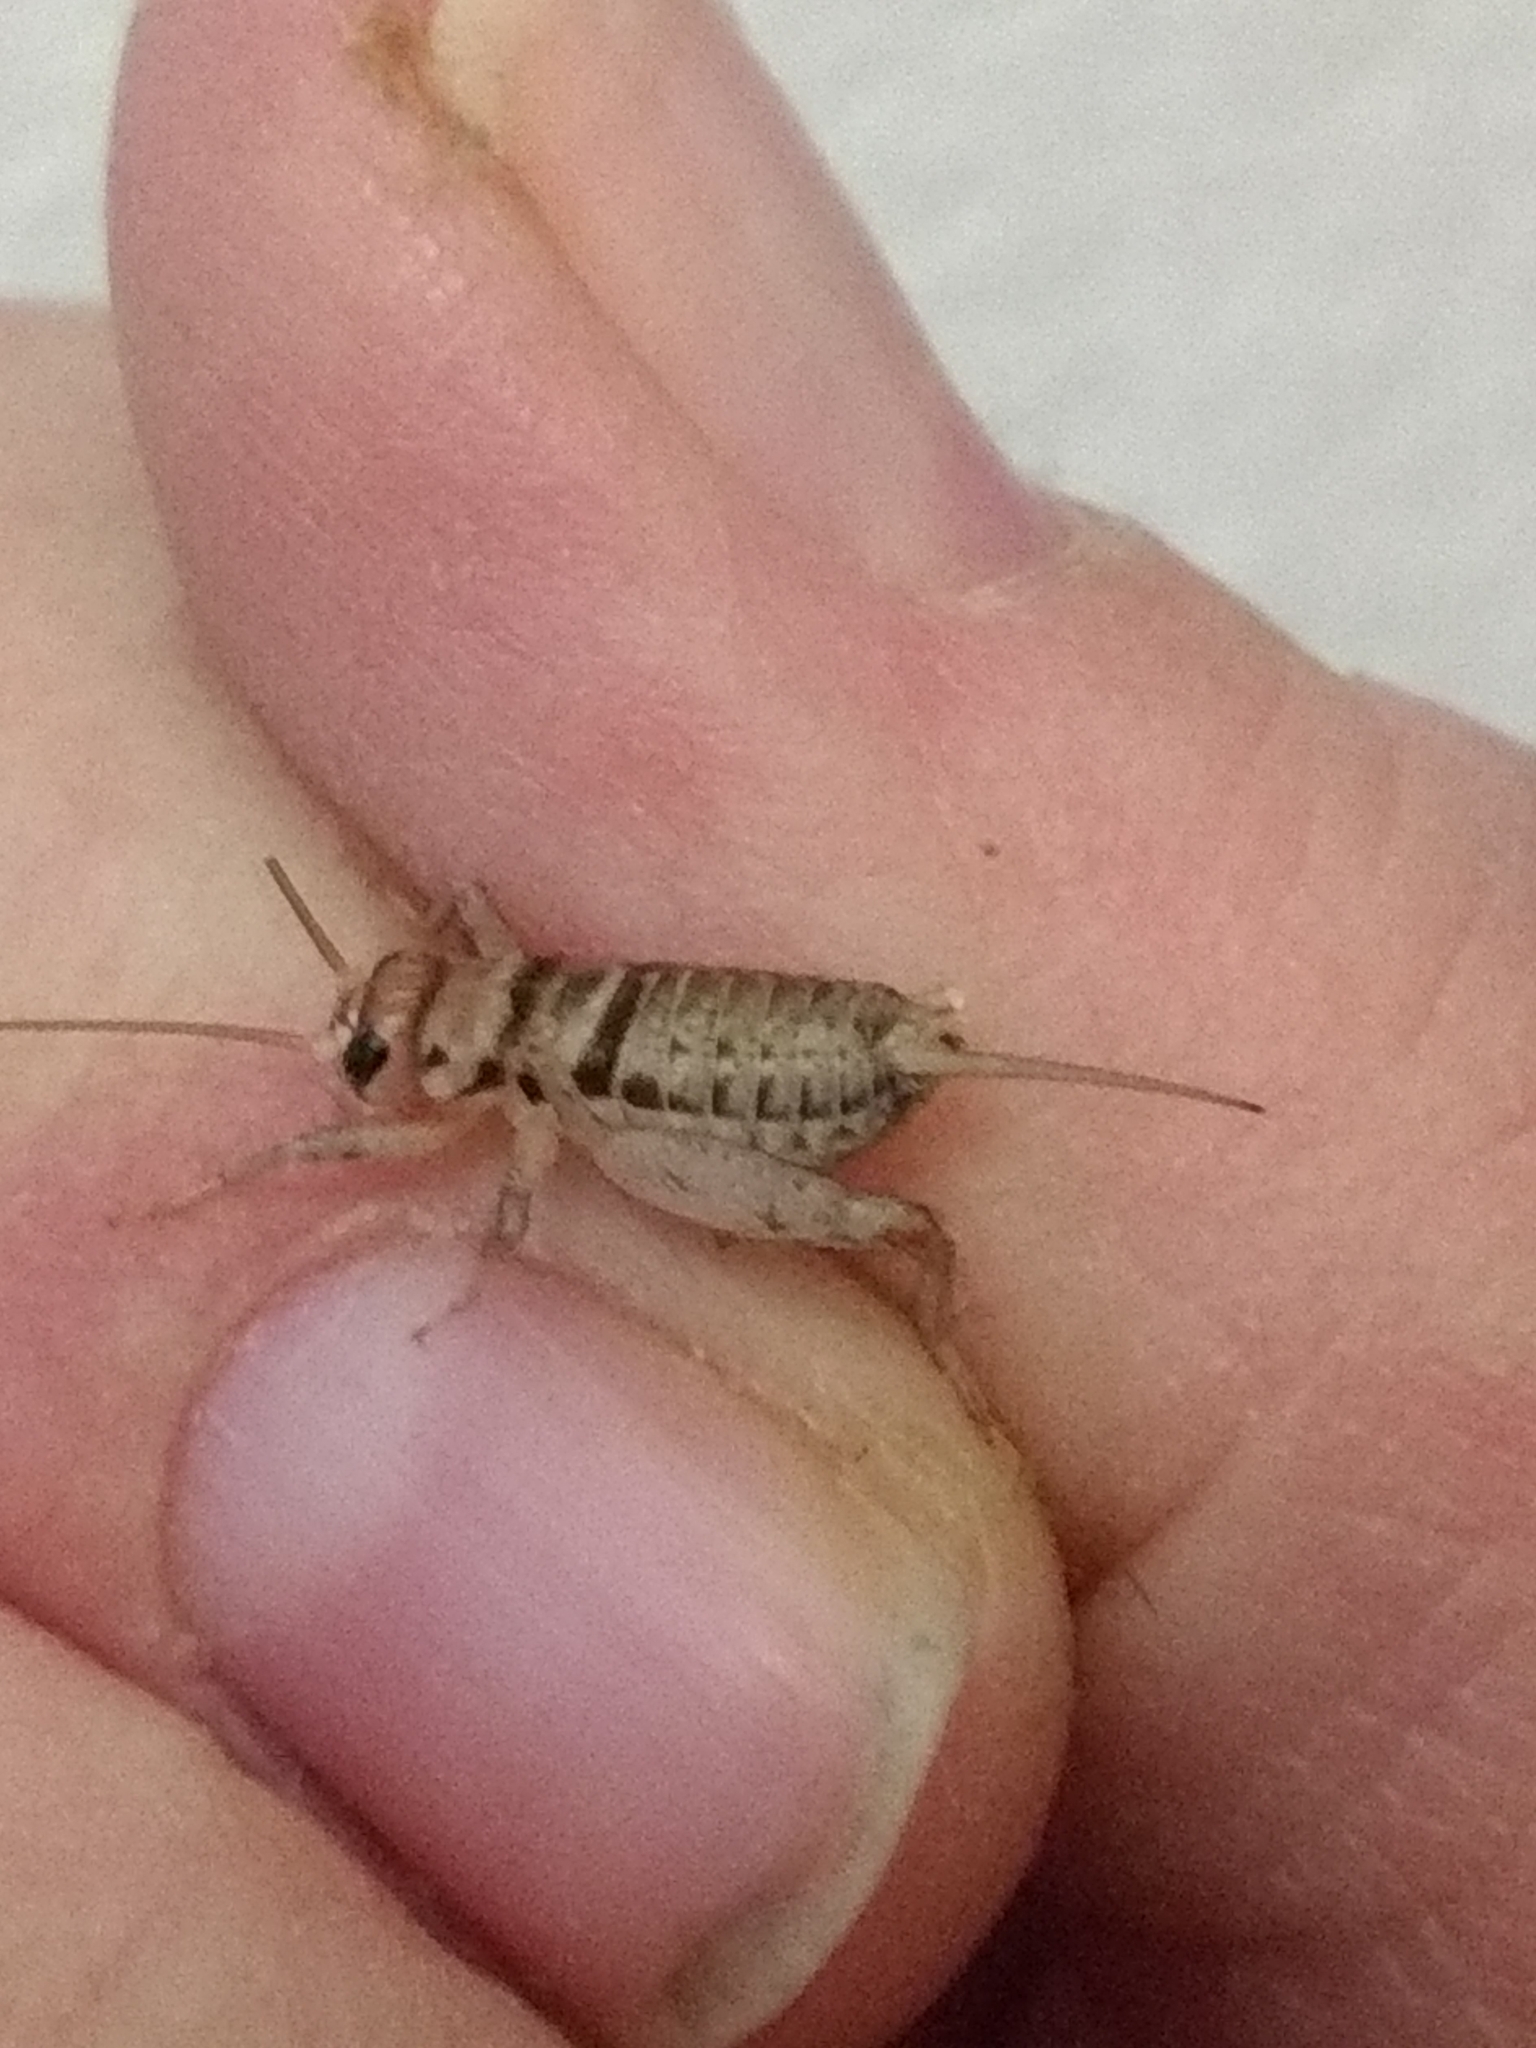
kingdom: Animalia
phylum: Arthropoda
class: Insecta
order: Orthoptera
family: Gryllidae
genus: Gryllodes
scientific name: Gryllodes sigillatus
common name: Tropical house cricket
